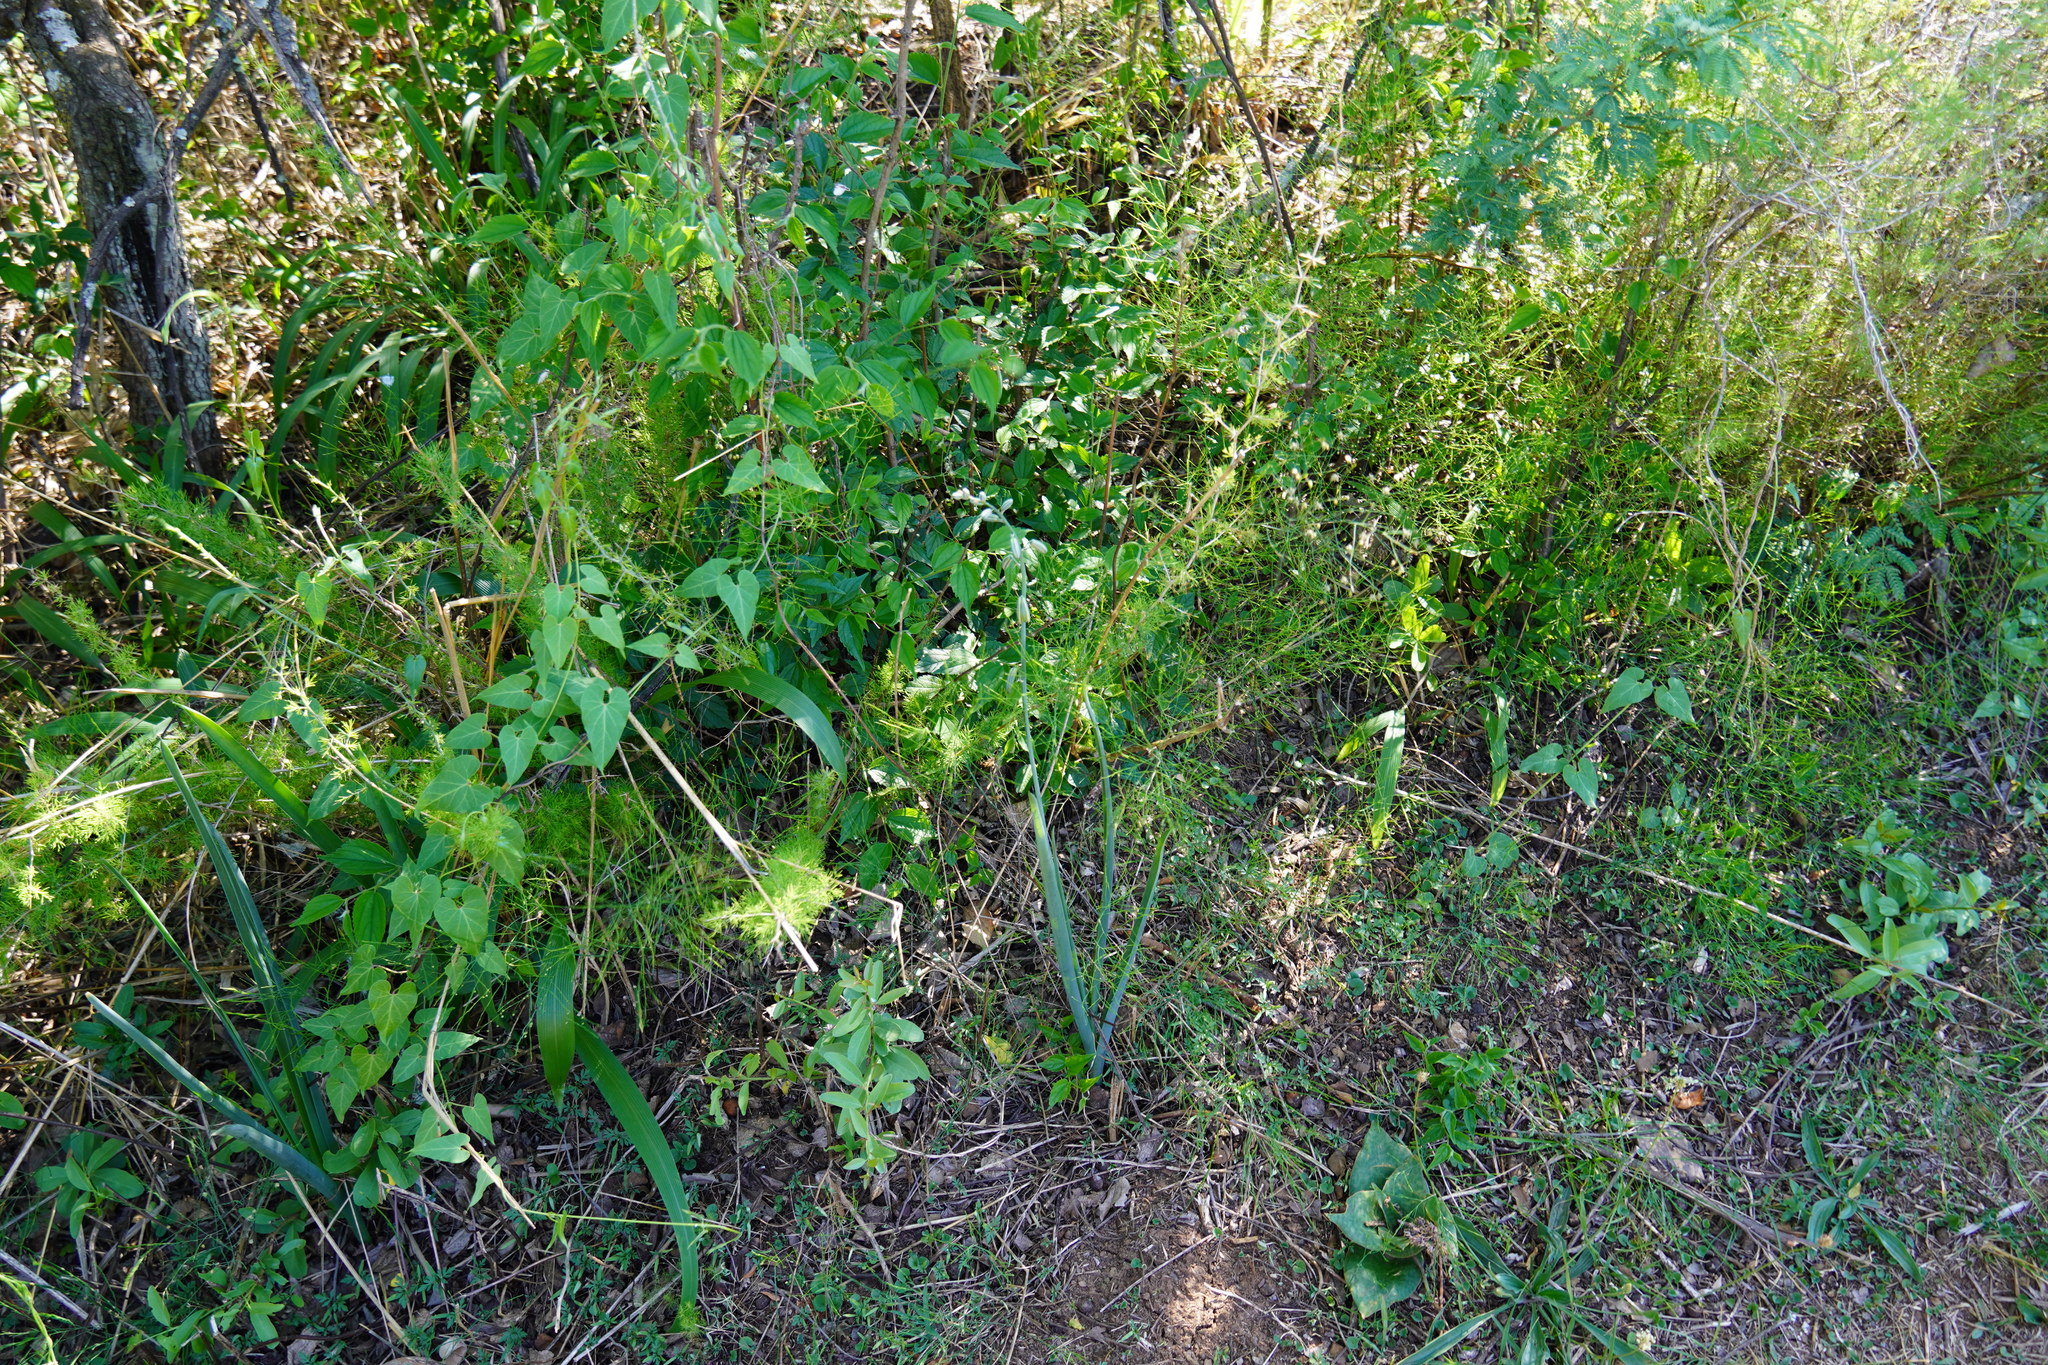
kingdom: Plantae
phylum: Tracheophyta
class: Liliopsida
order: Asparagales
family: Asparagaceae
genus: Albuca
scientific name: Albuca abyssinica
